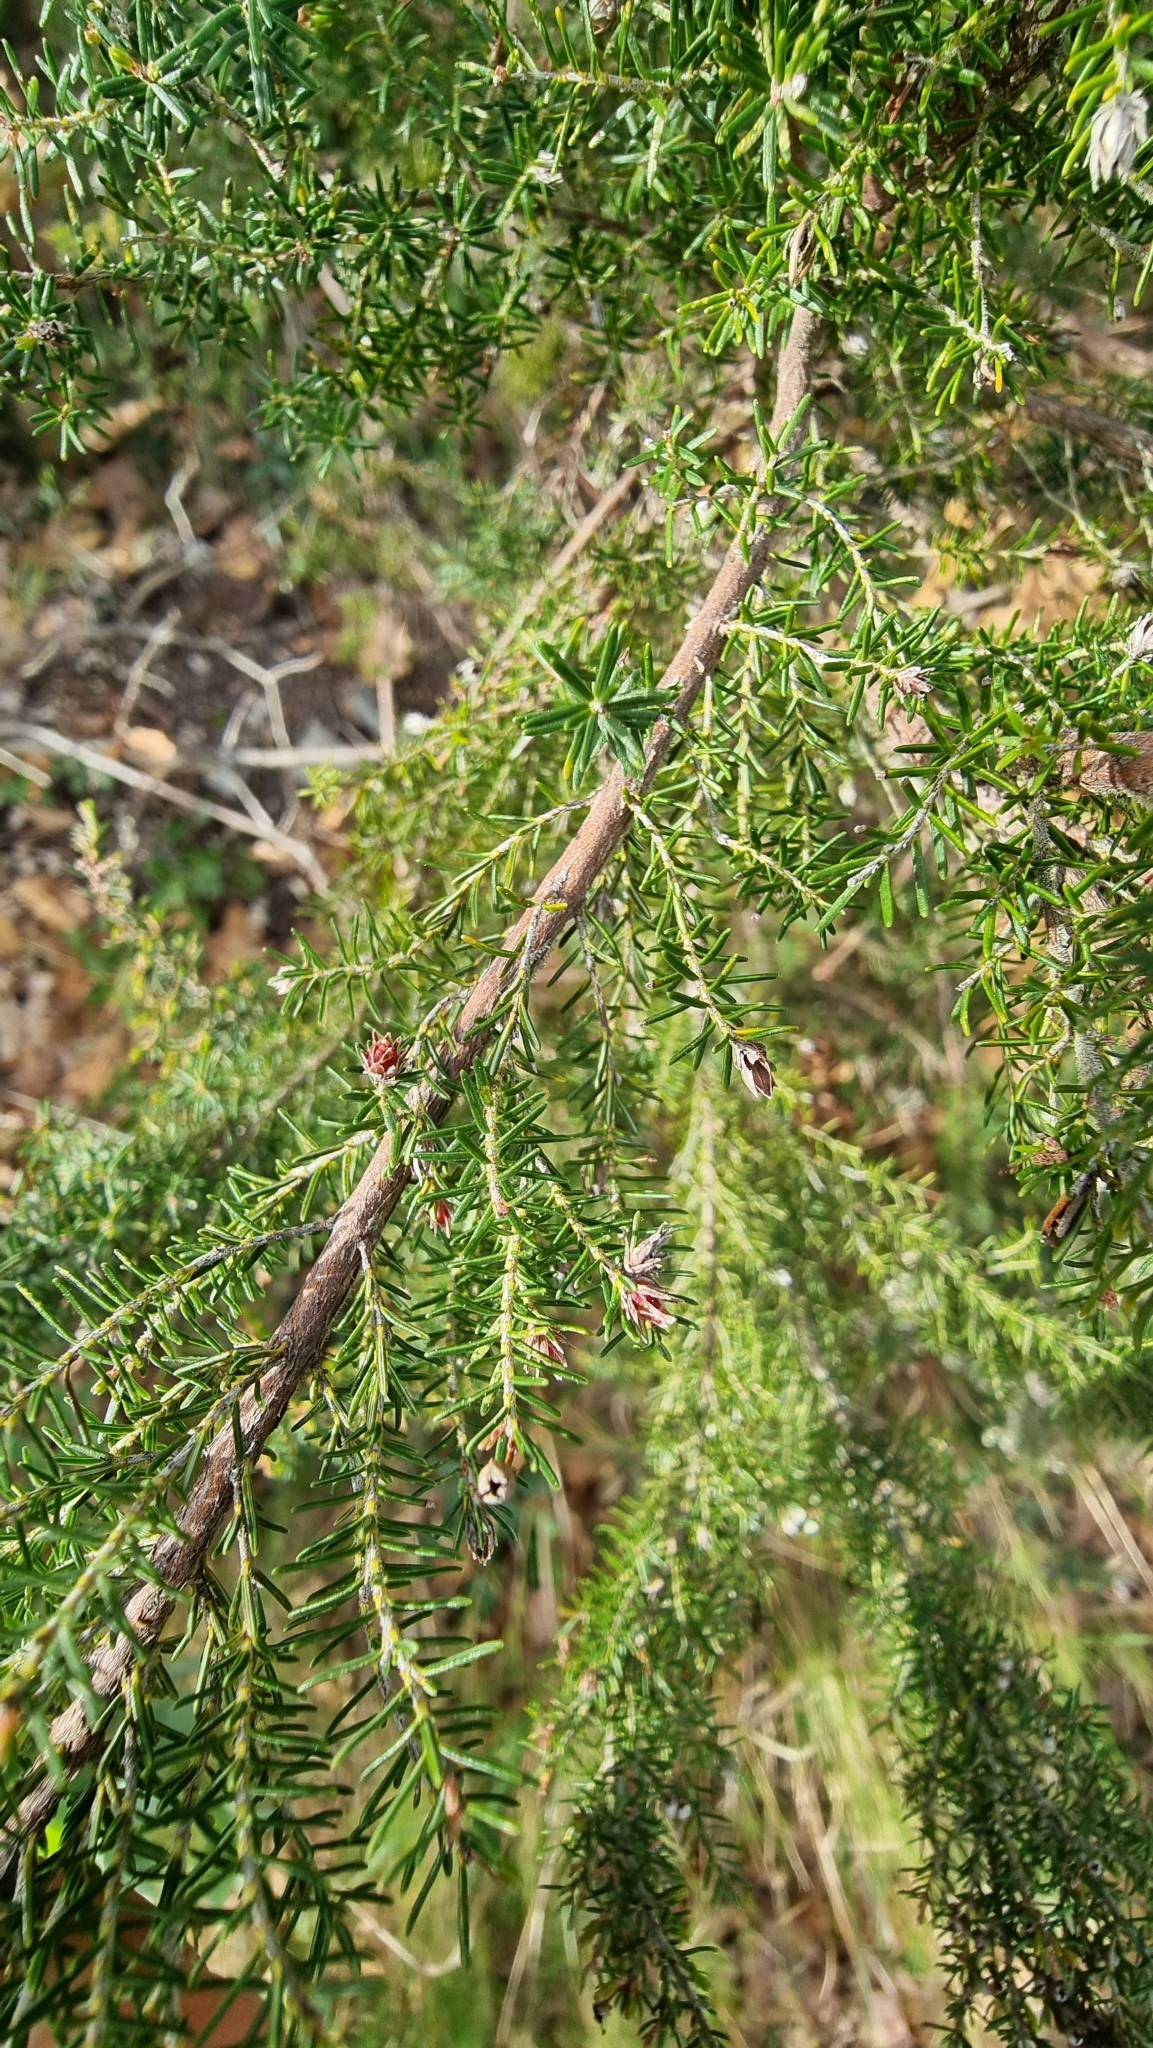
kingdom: Plantae
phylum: Tracheophyta
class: Magnoliopsida
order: Ericales
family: Ericaceae
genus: Erica
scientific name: Erica arborea
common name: Tree heath
